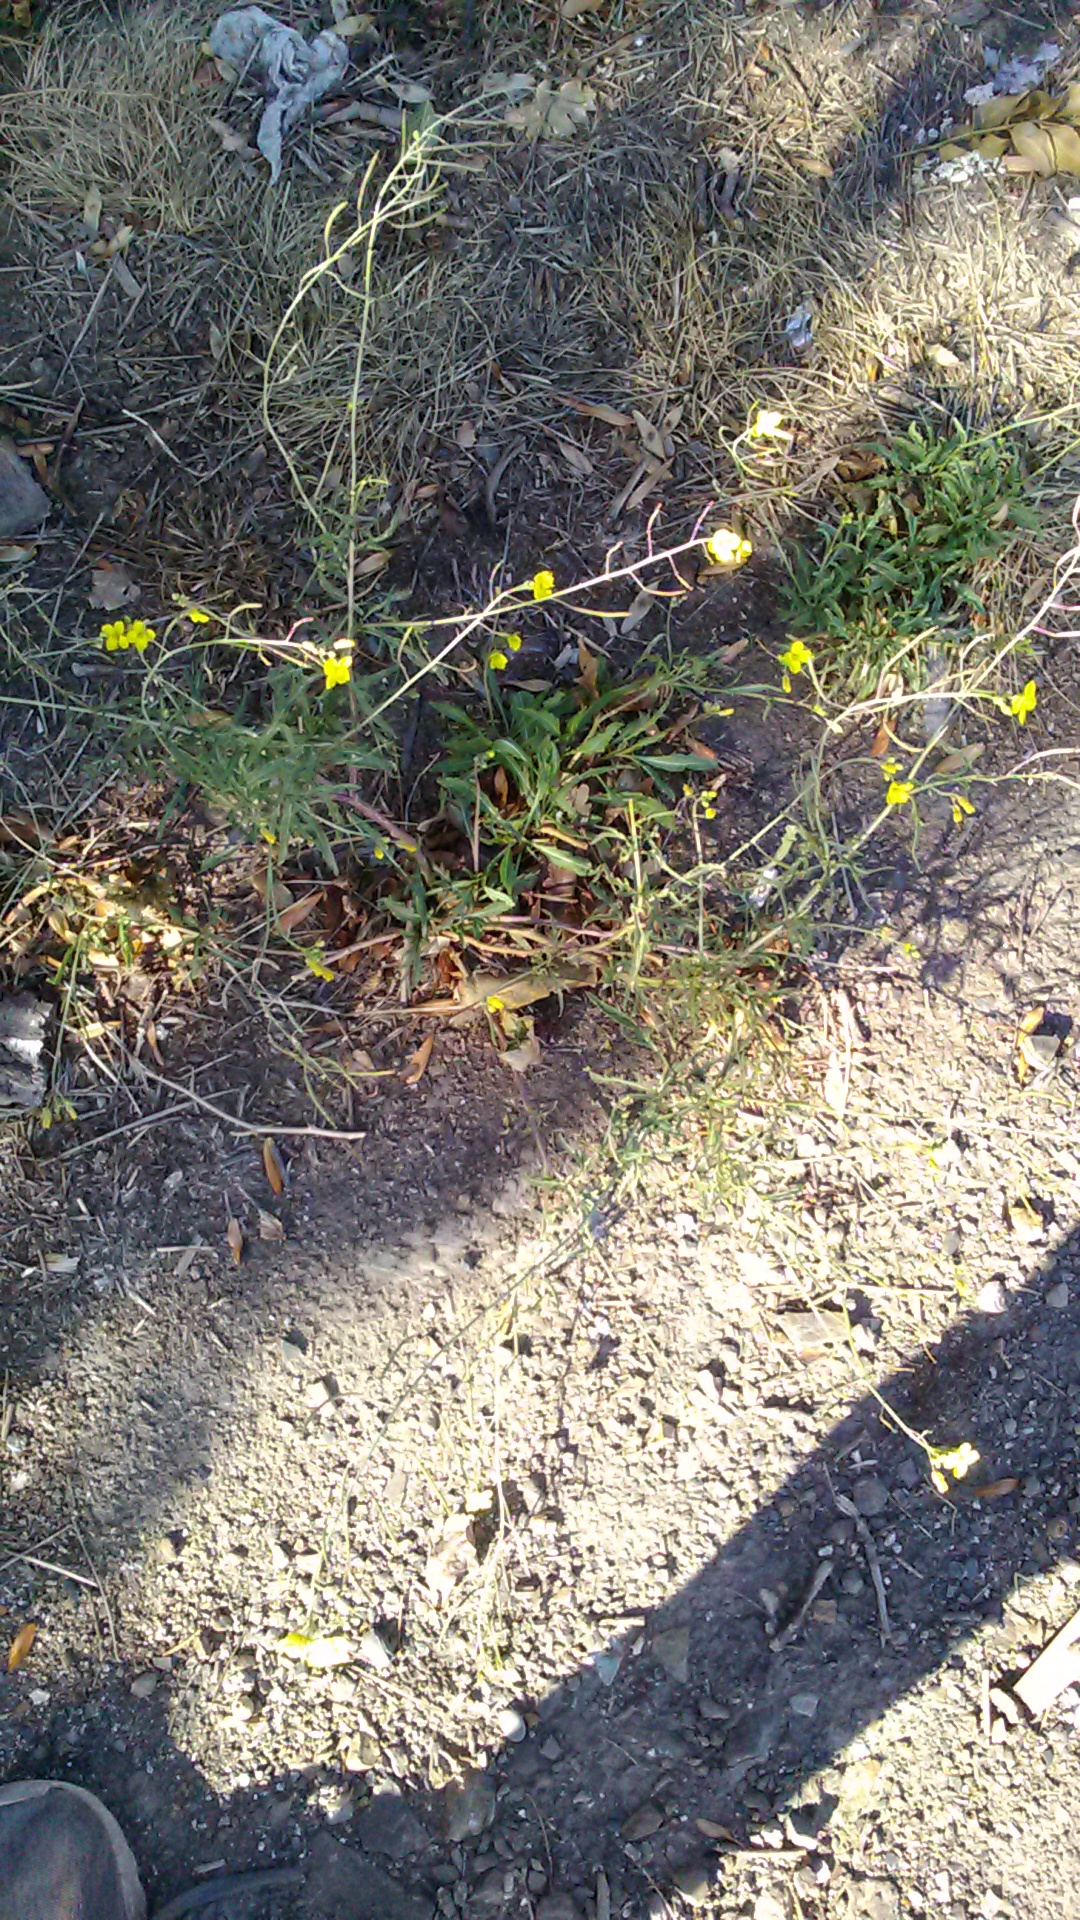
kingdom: Plantae
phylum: Tracheophyta
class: Magnoliopsida
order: Brassicales
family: Brassicaceae
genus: Diplotaxis
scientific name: Diplotaxis tenuifolia
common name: Perennial wall-rocket
